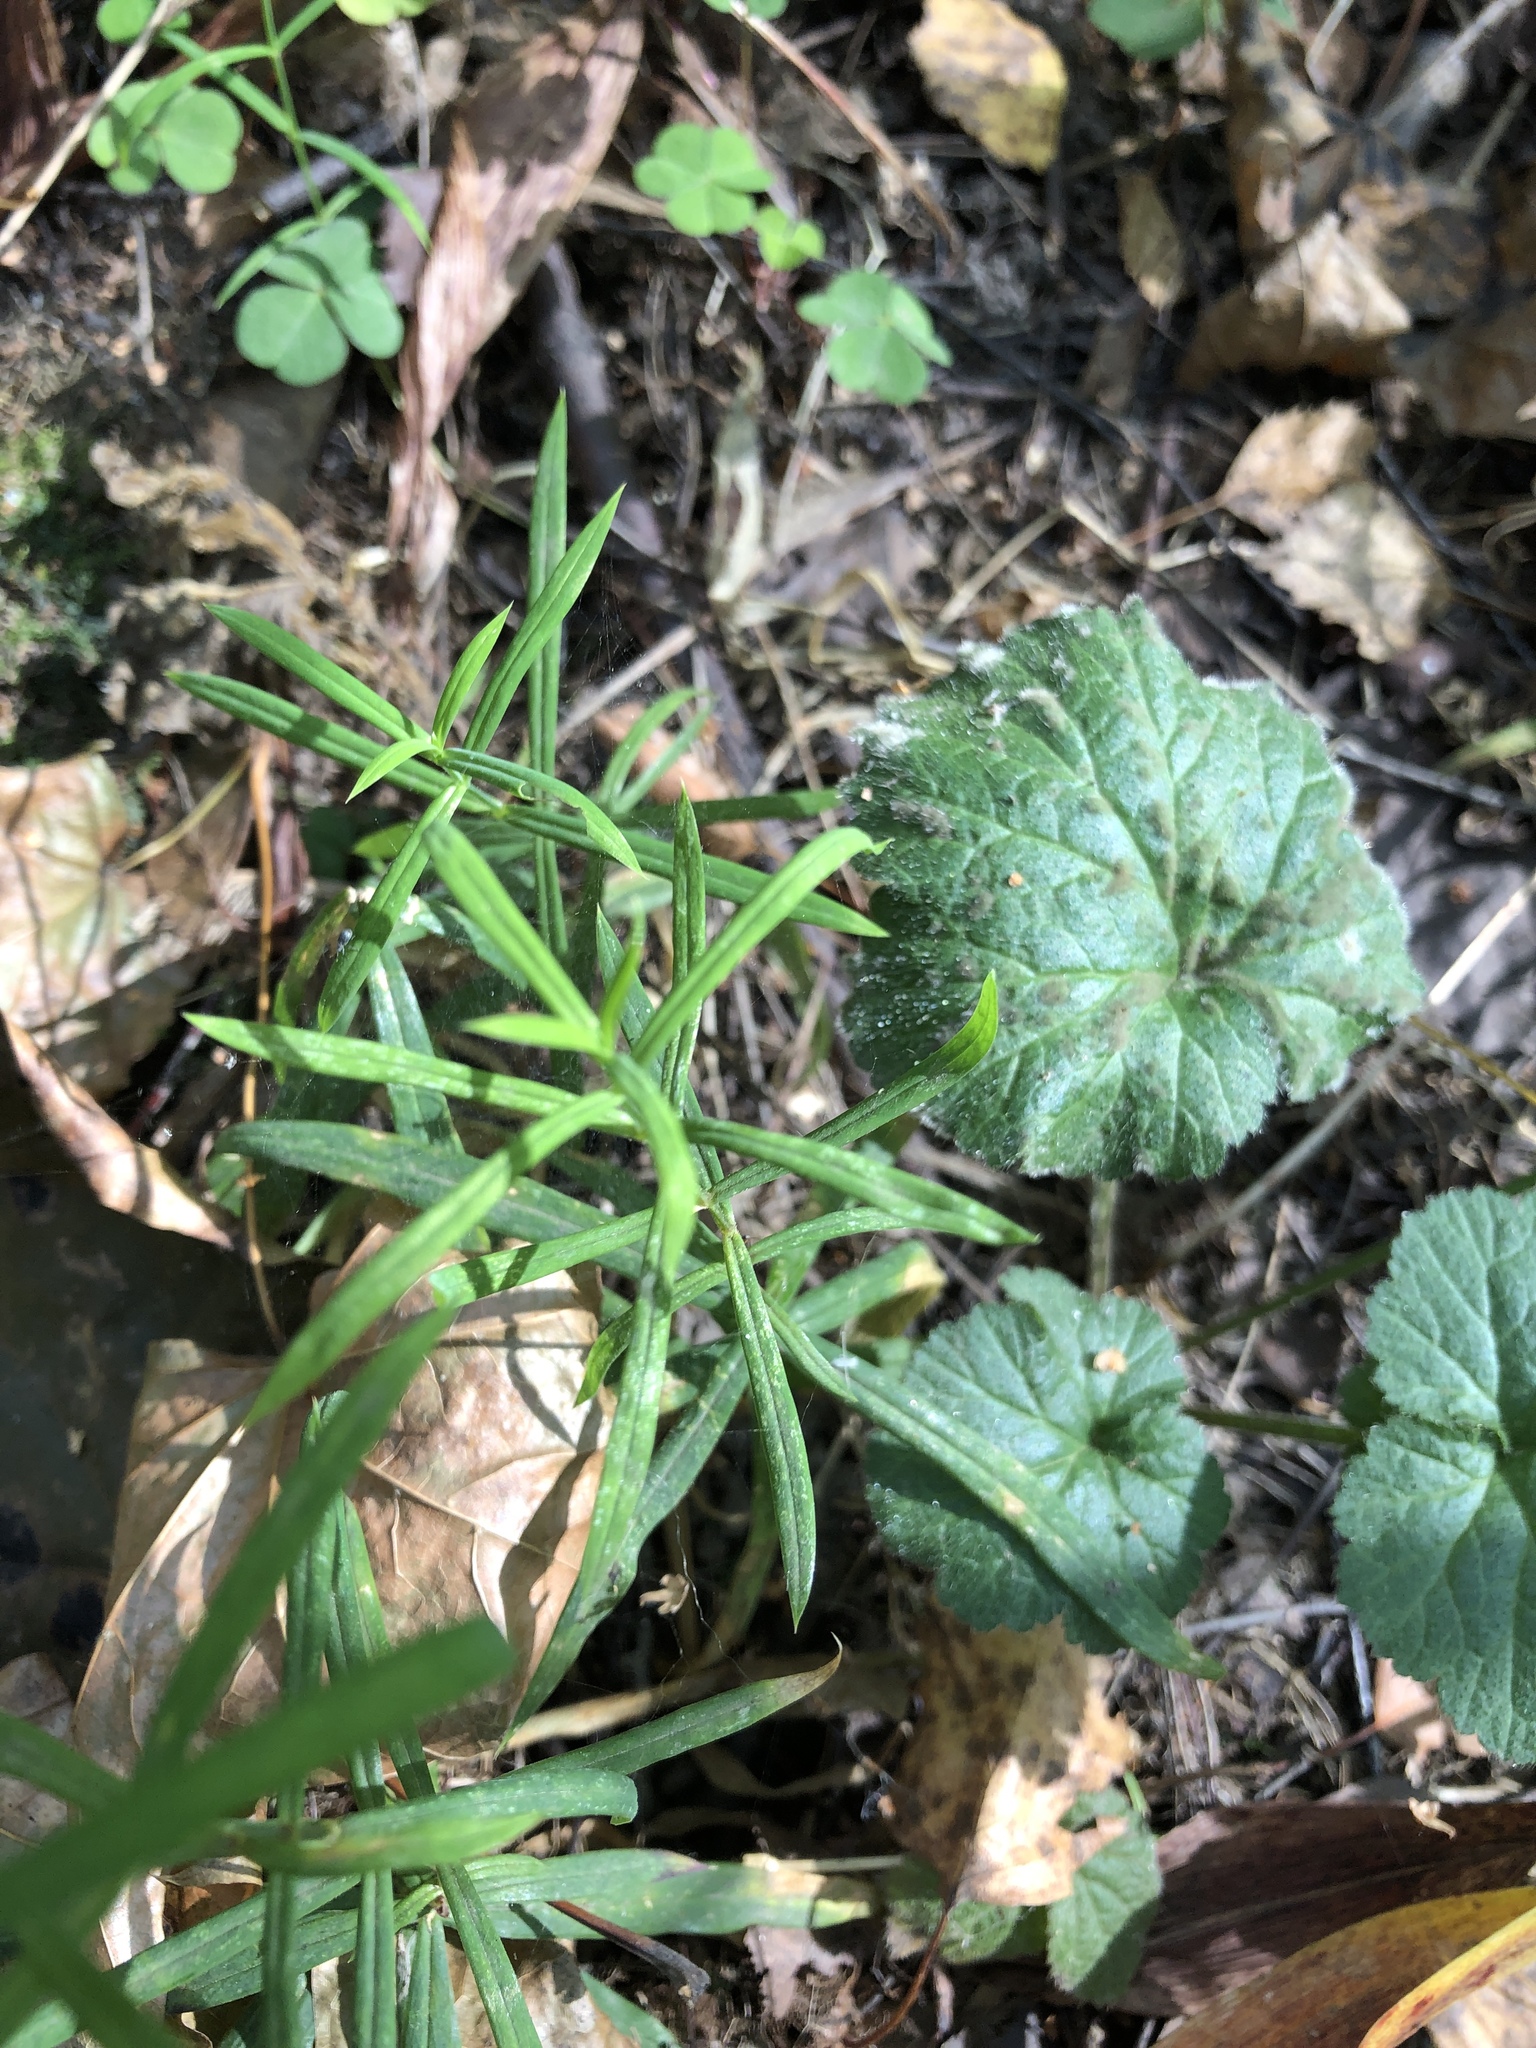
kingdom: Plantae
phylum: Tracheophyta
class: Magnoliopsida
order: Caryophyllales
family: Caryophyllaceae
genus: Rabelera
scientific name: Rabelera holostea
